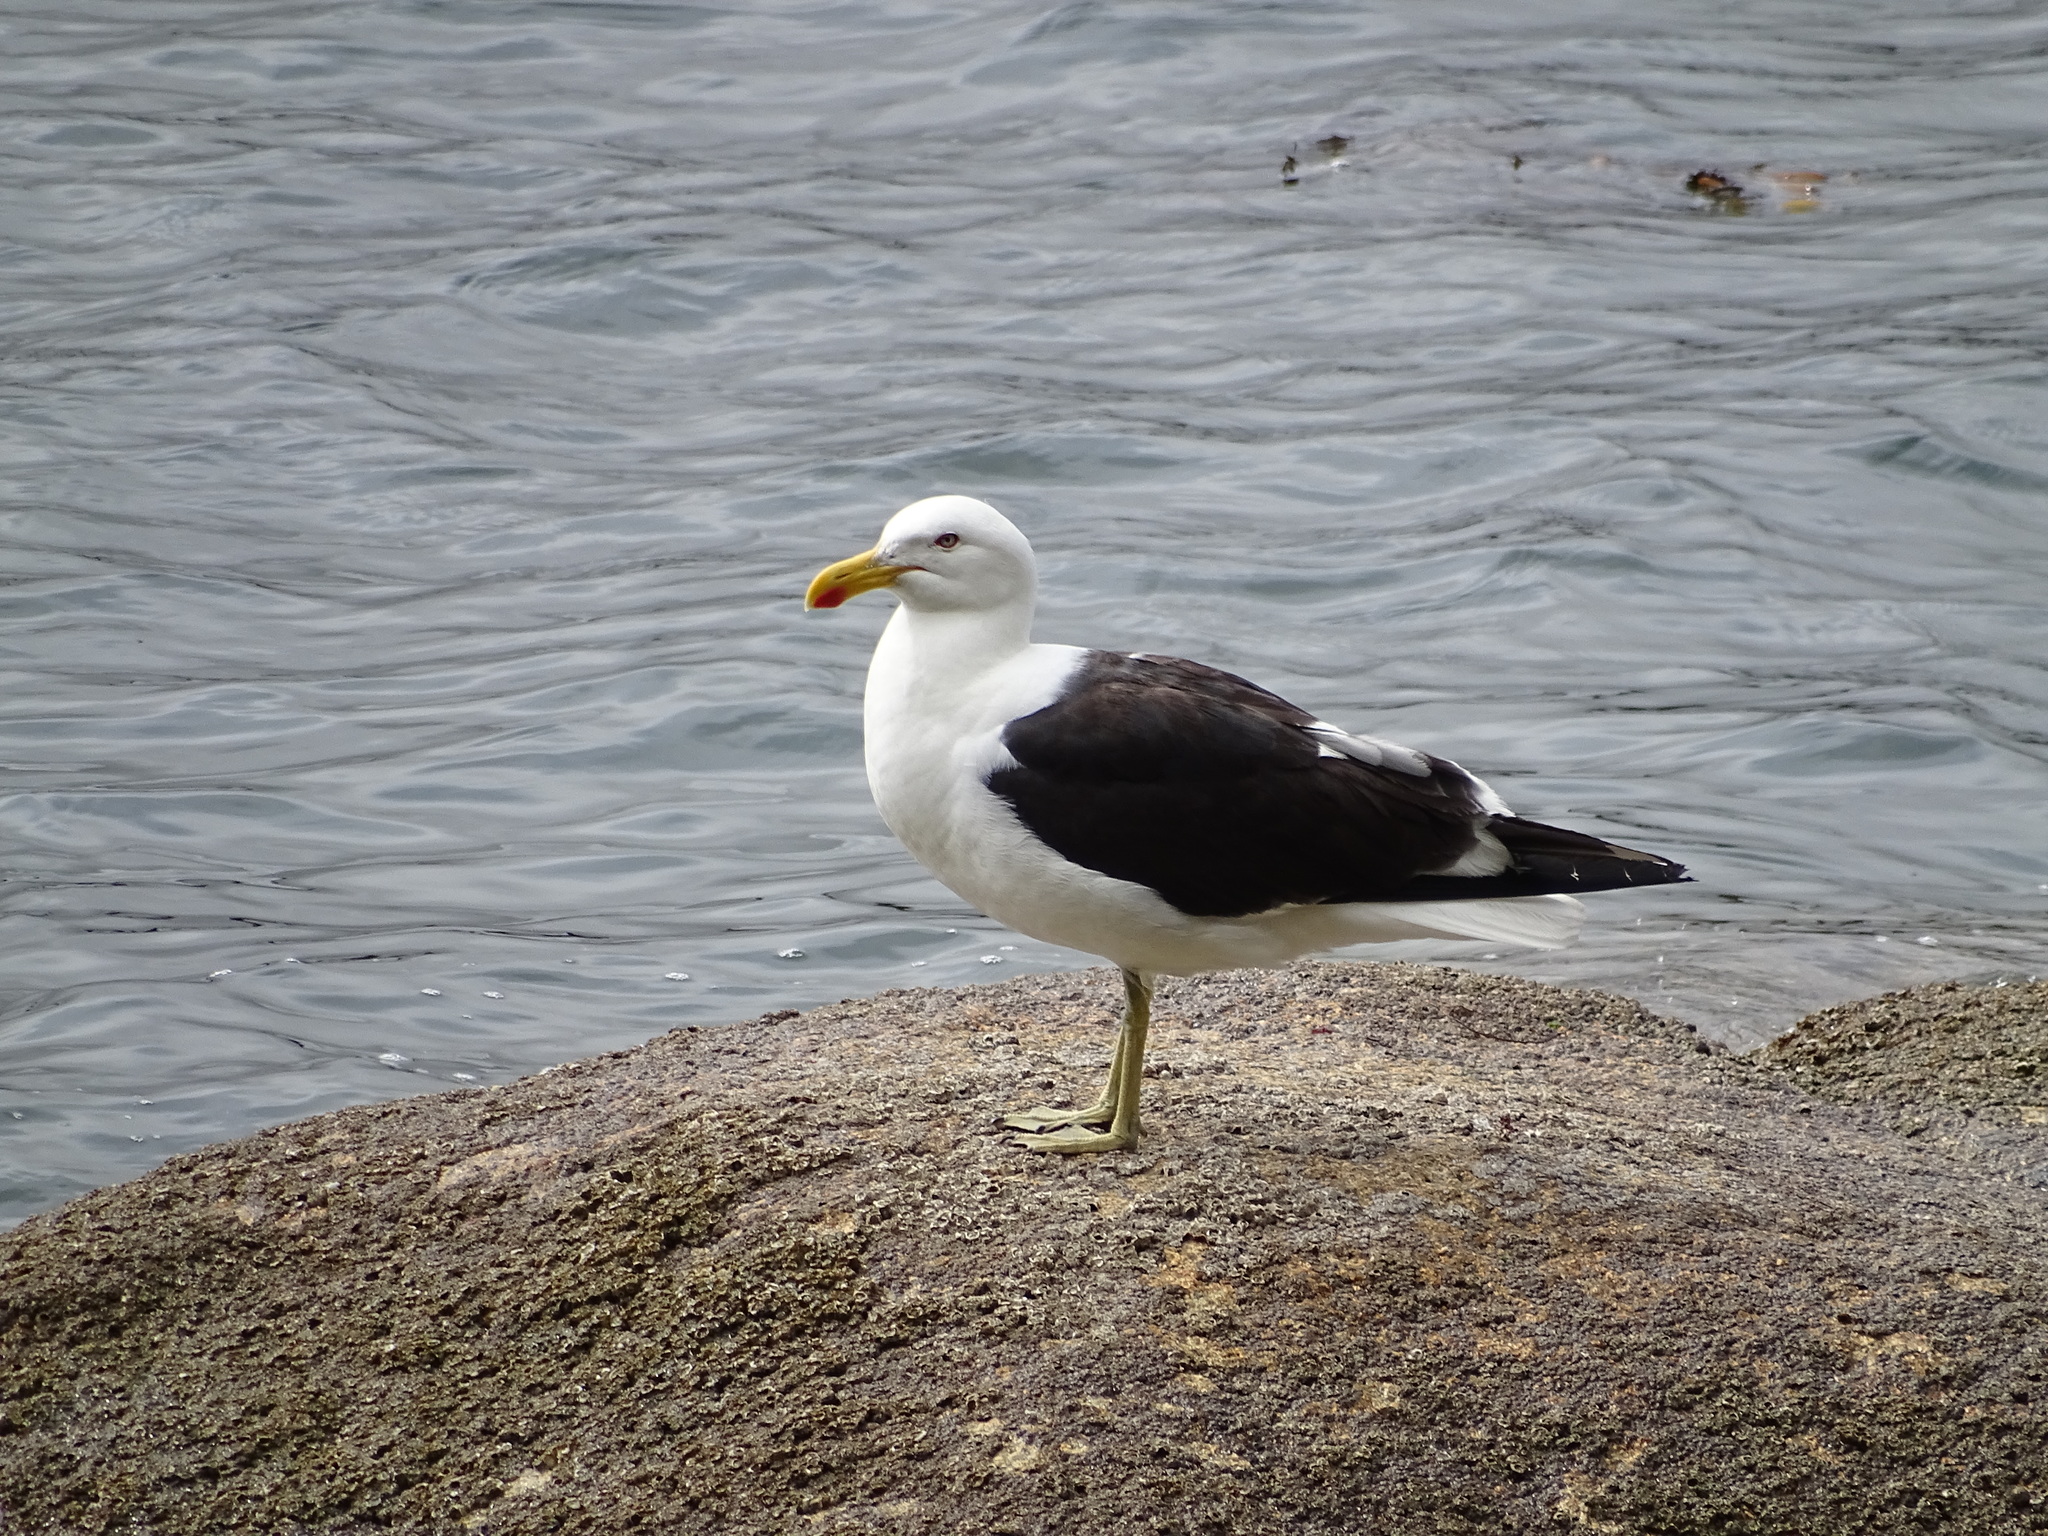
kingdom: Animalia
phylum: Chordata
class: Aves
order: Charadriiformes
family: Laridae
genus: Larus
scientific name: Larus dominicanus
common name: Kelp gull
